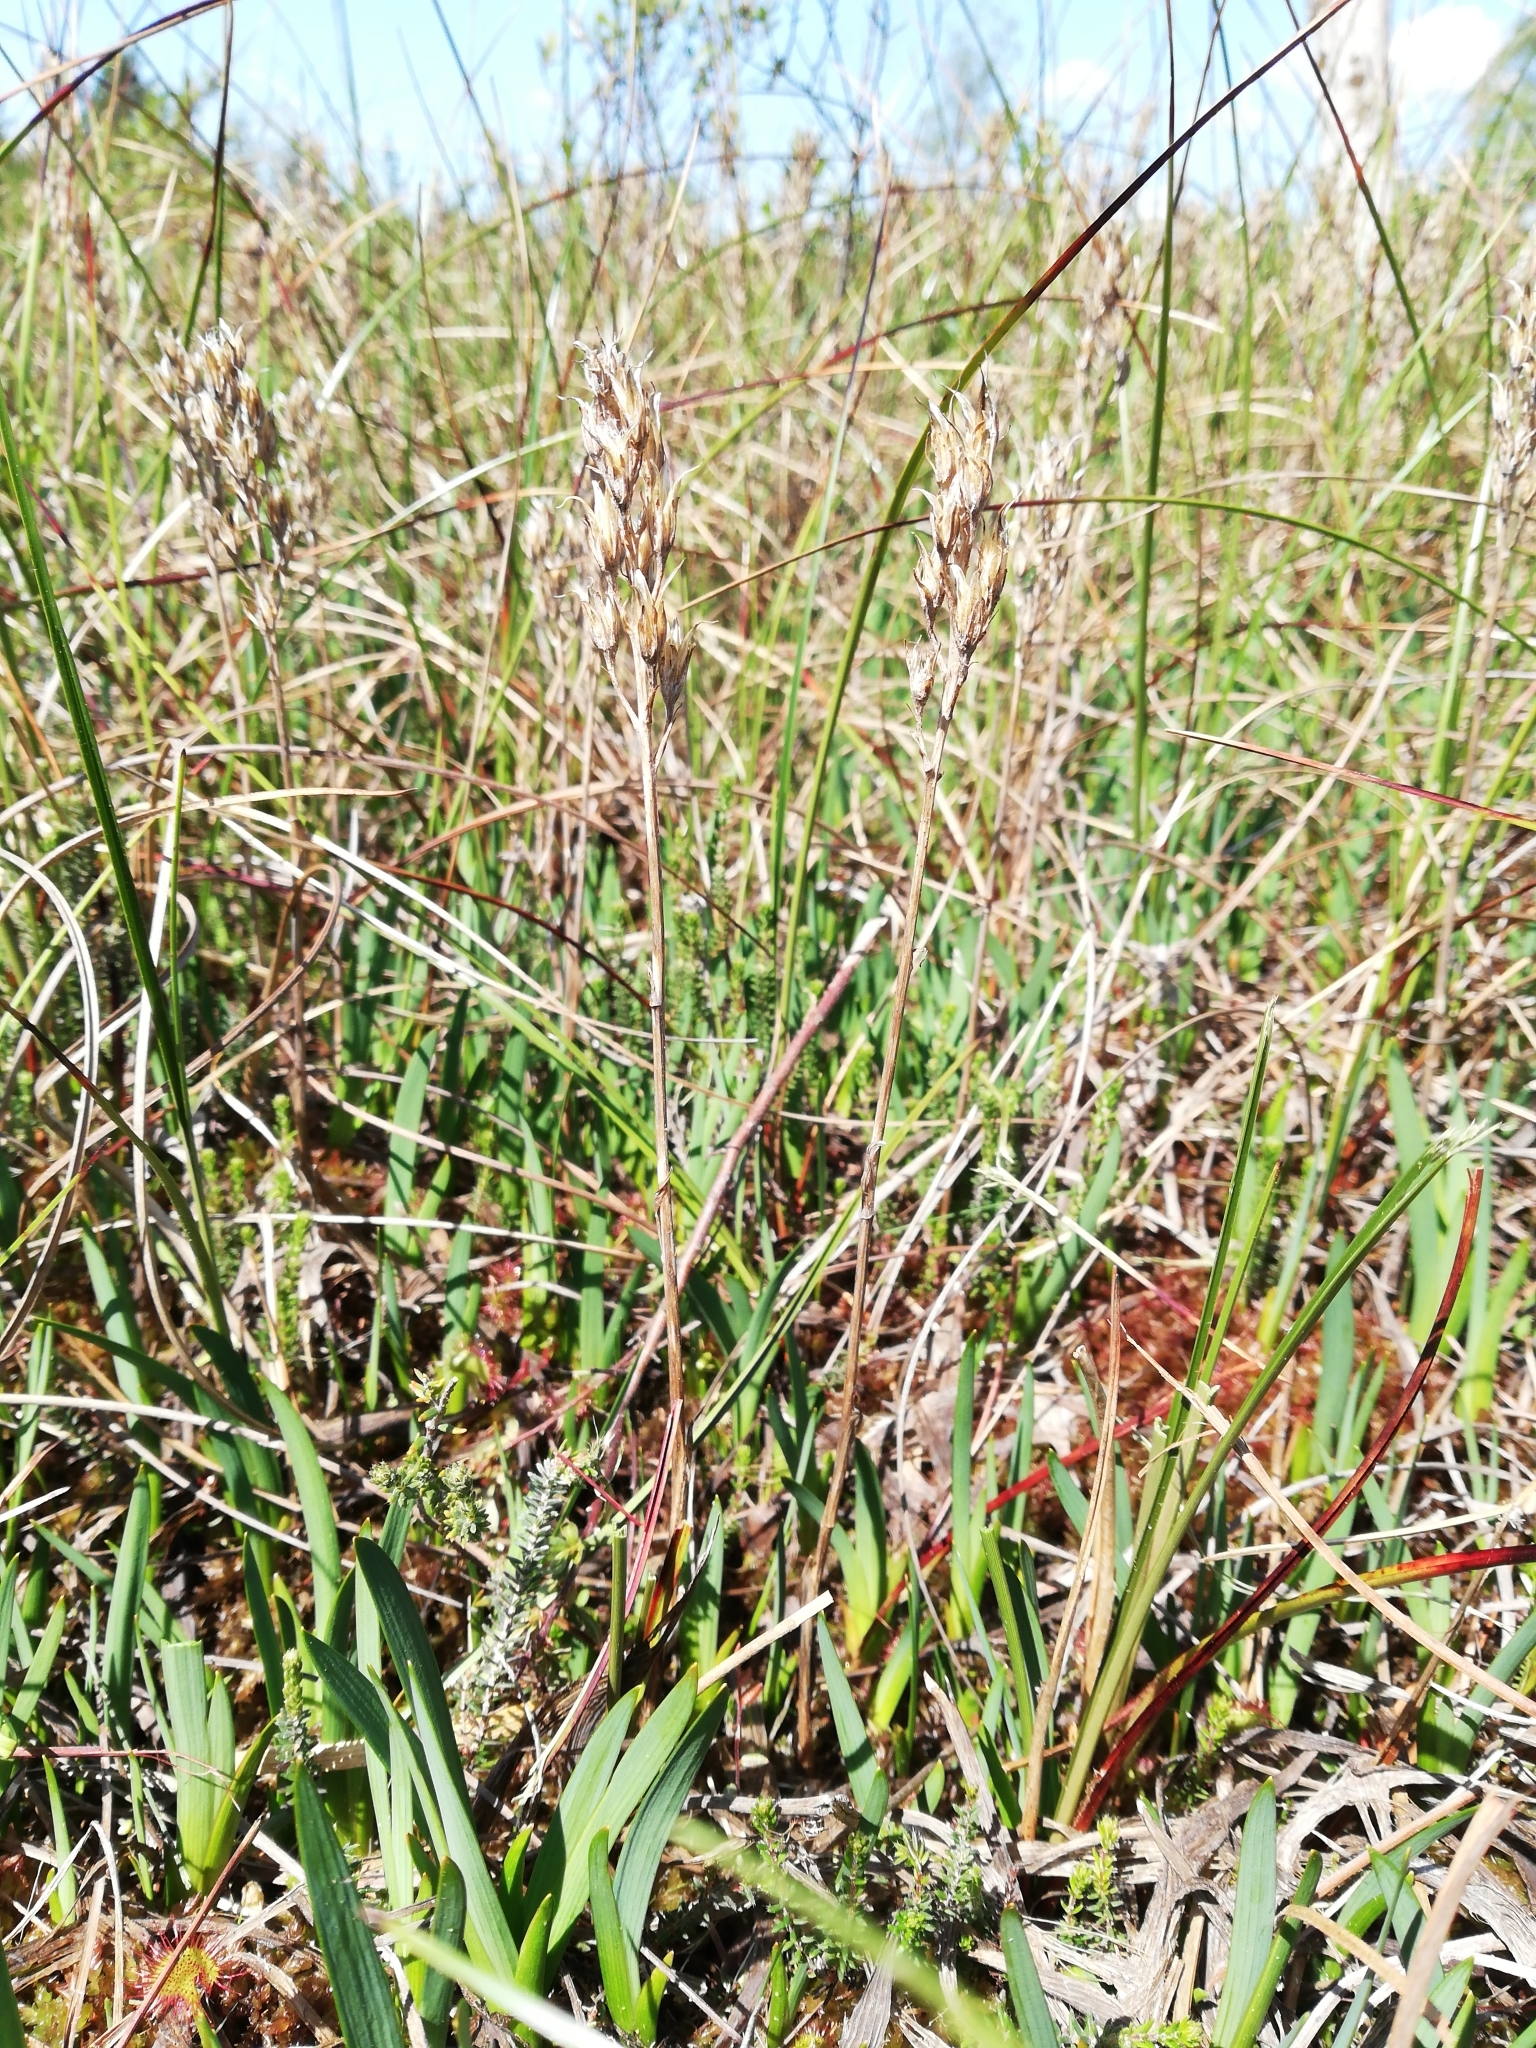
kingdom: Plantae
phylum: Tracheophyta
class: Liliopsida
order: Dioscoreales
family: Nartheciaceae
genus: Narthecium
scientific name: Narthecium ossifragum
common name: Bog asphodel
